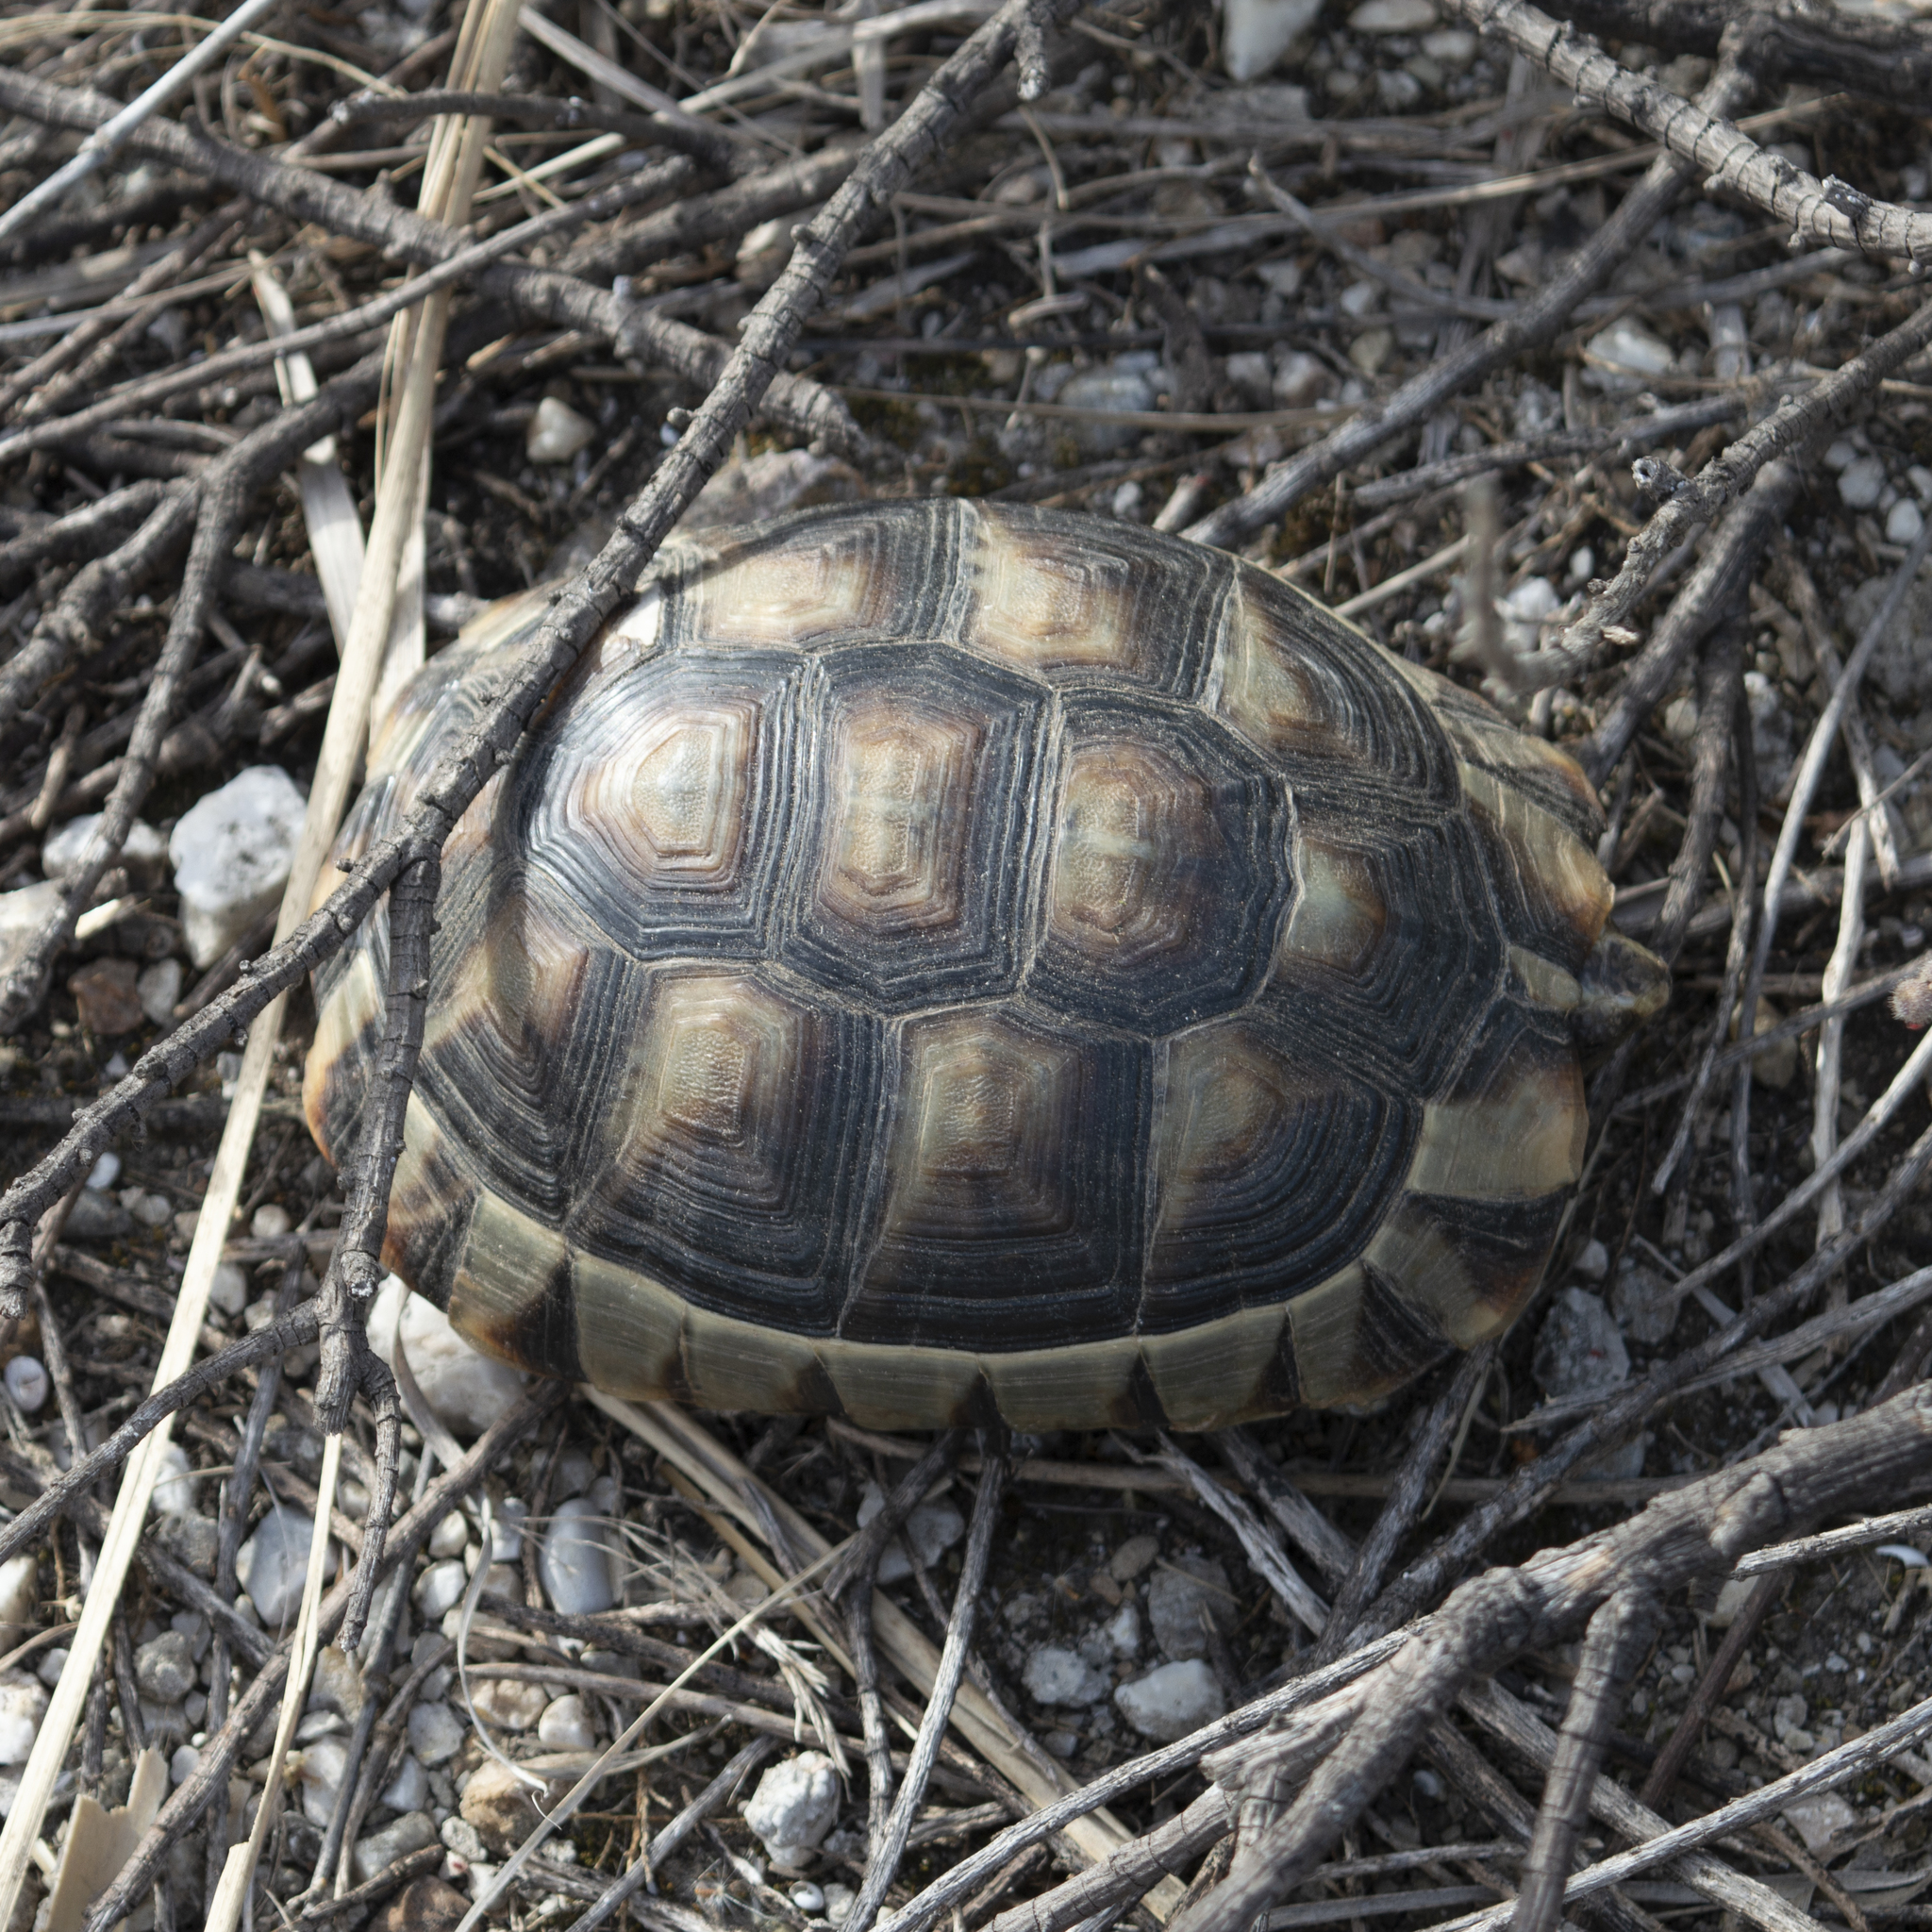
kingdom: Animalia
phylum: Chordata
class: Testudines
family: Testudinidae
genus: Testudo
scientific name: Testudo marginata
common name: Marginated tortoise
